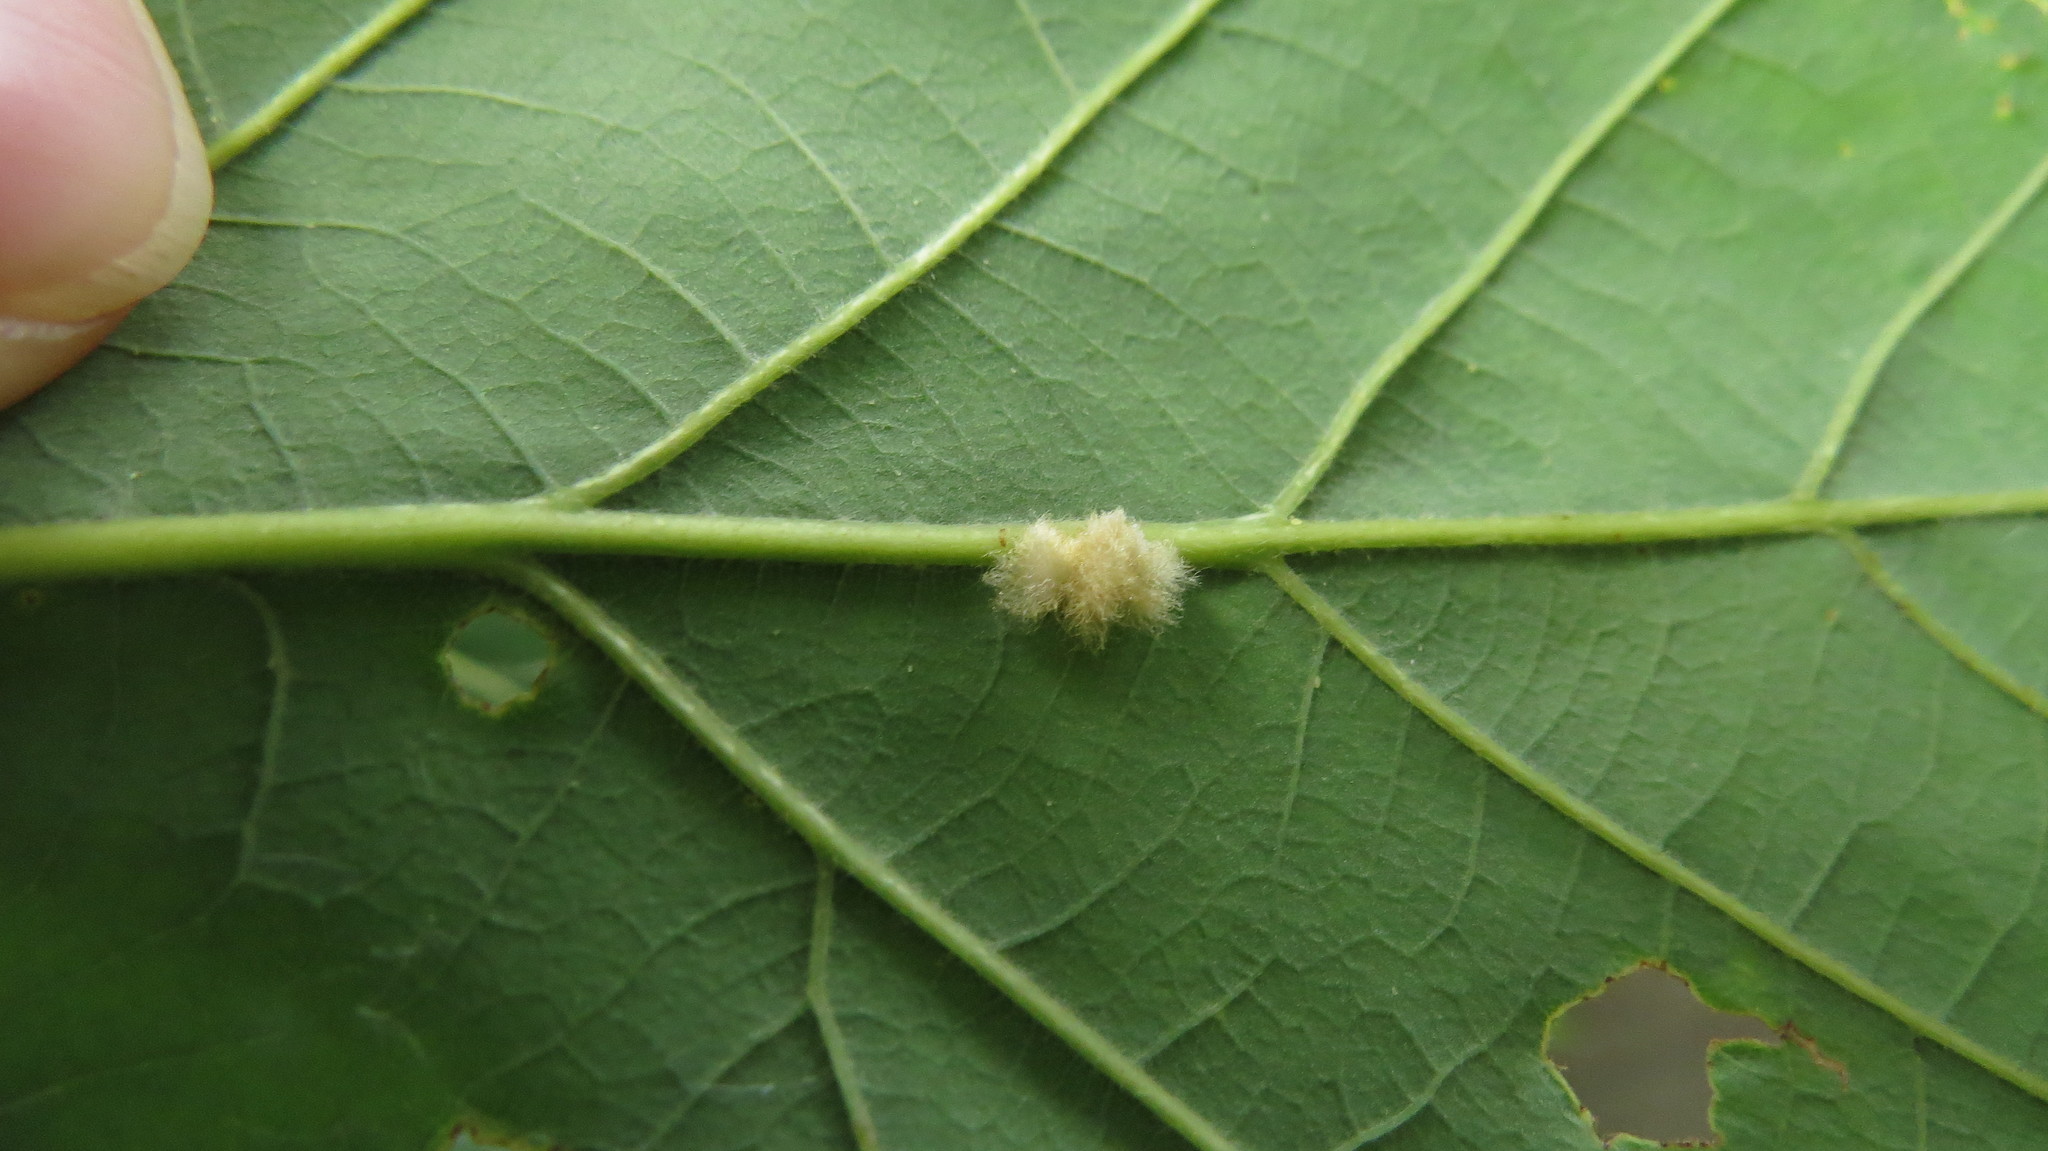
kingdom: Animalia
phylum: Arthropoda
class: Insecta
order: Hymenoptera
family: Cynipidae
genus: Andricus
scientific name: Andricus Druon ignotum
